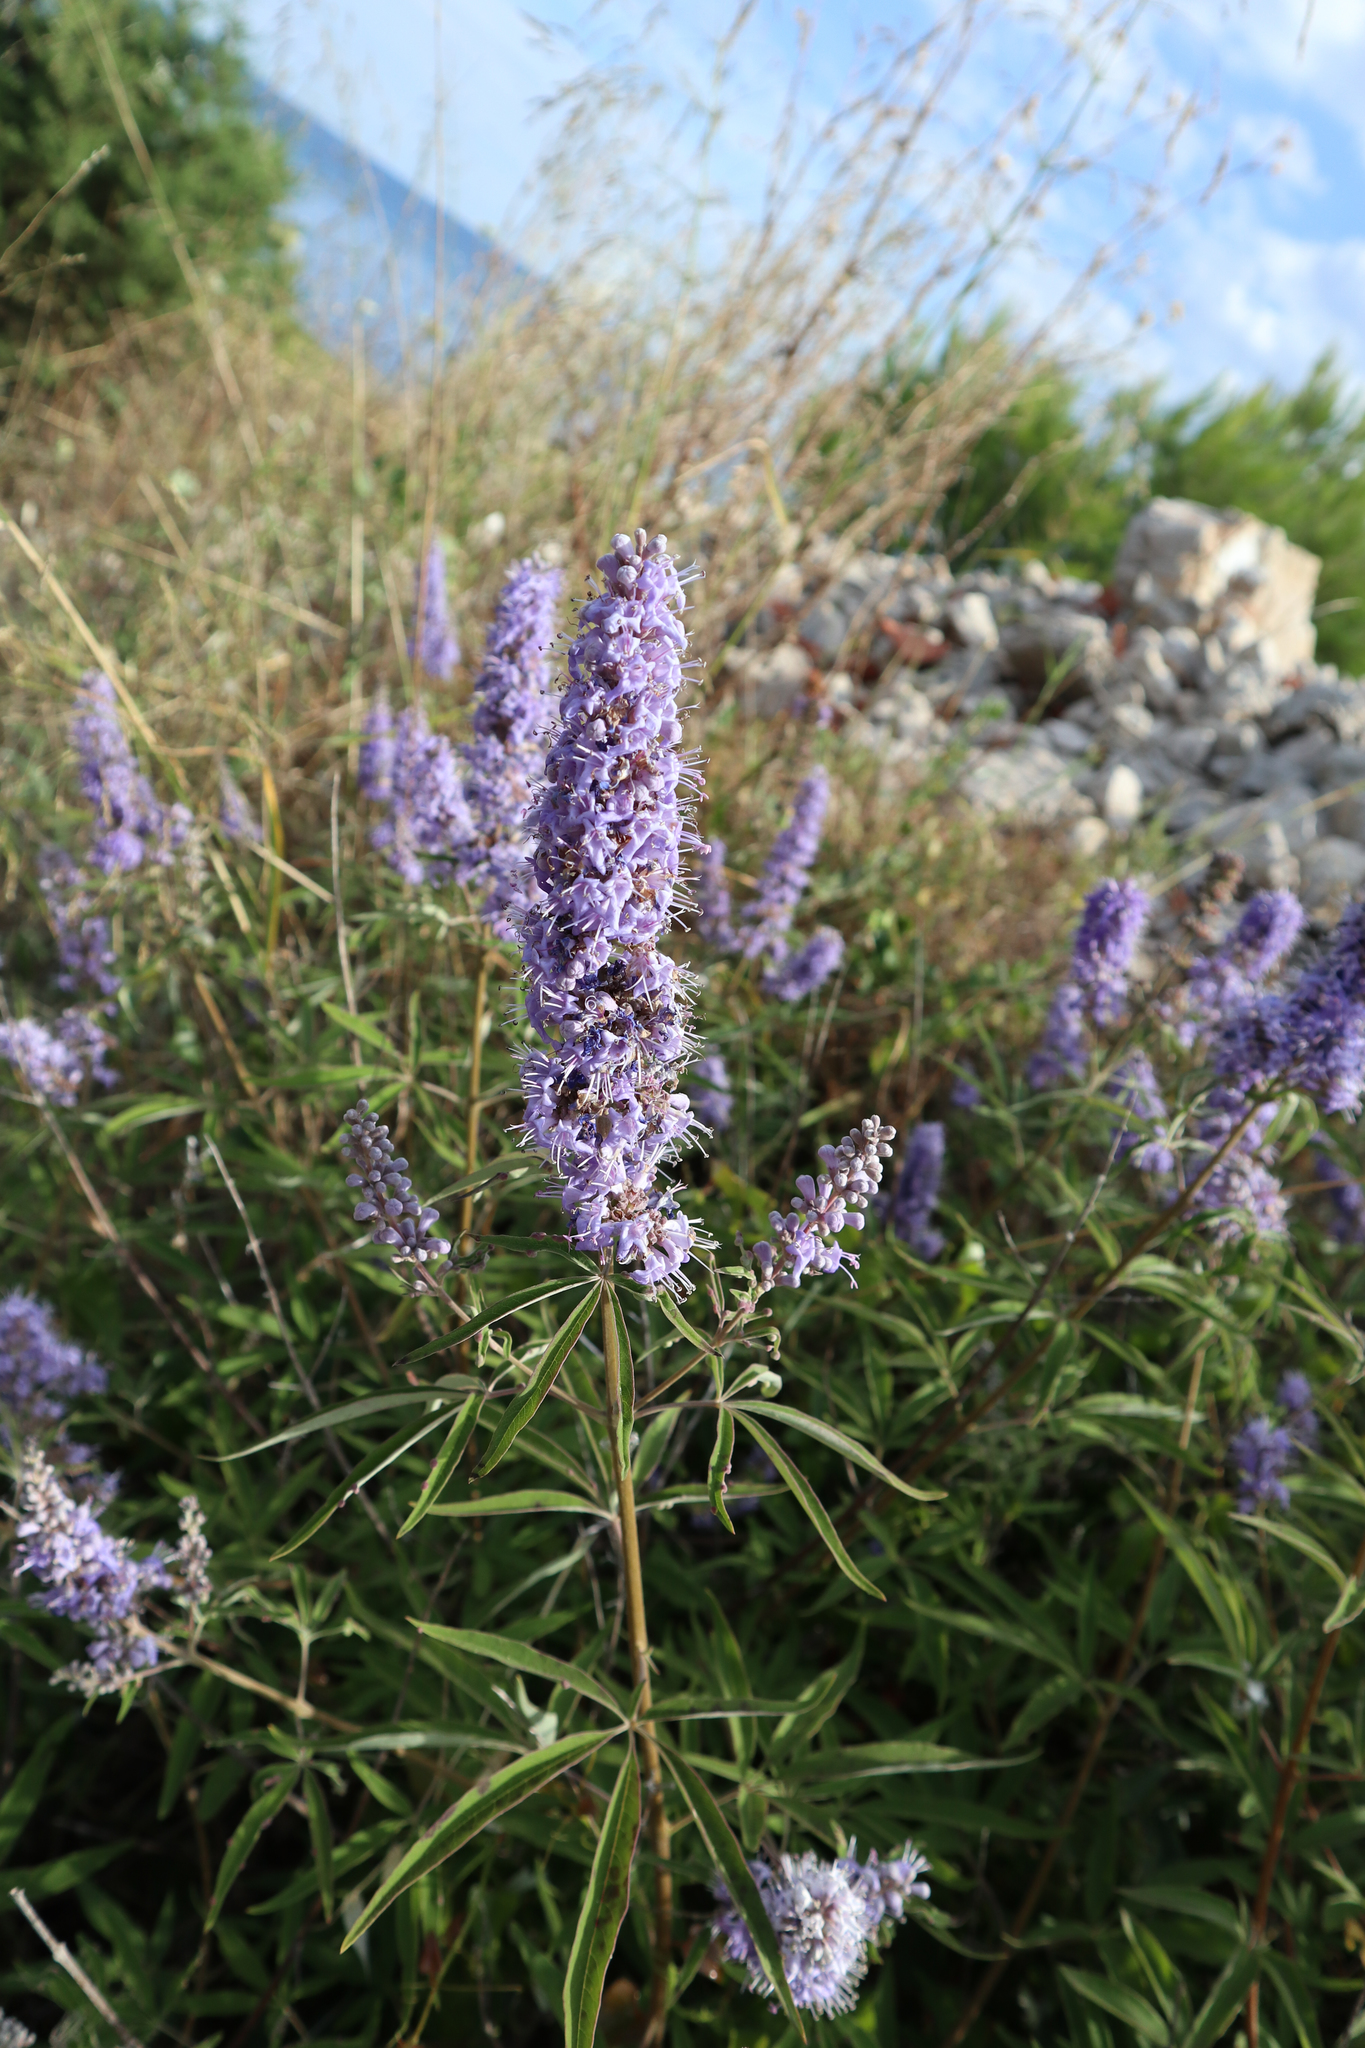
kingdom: Plantae
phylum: Tracheophyta
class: Magnoliopsida
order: Lamiales
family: Lamiaceae
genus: Vitex
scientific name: Vitex agnus-castus
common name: Chasteberry
